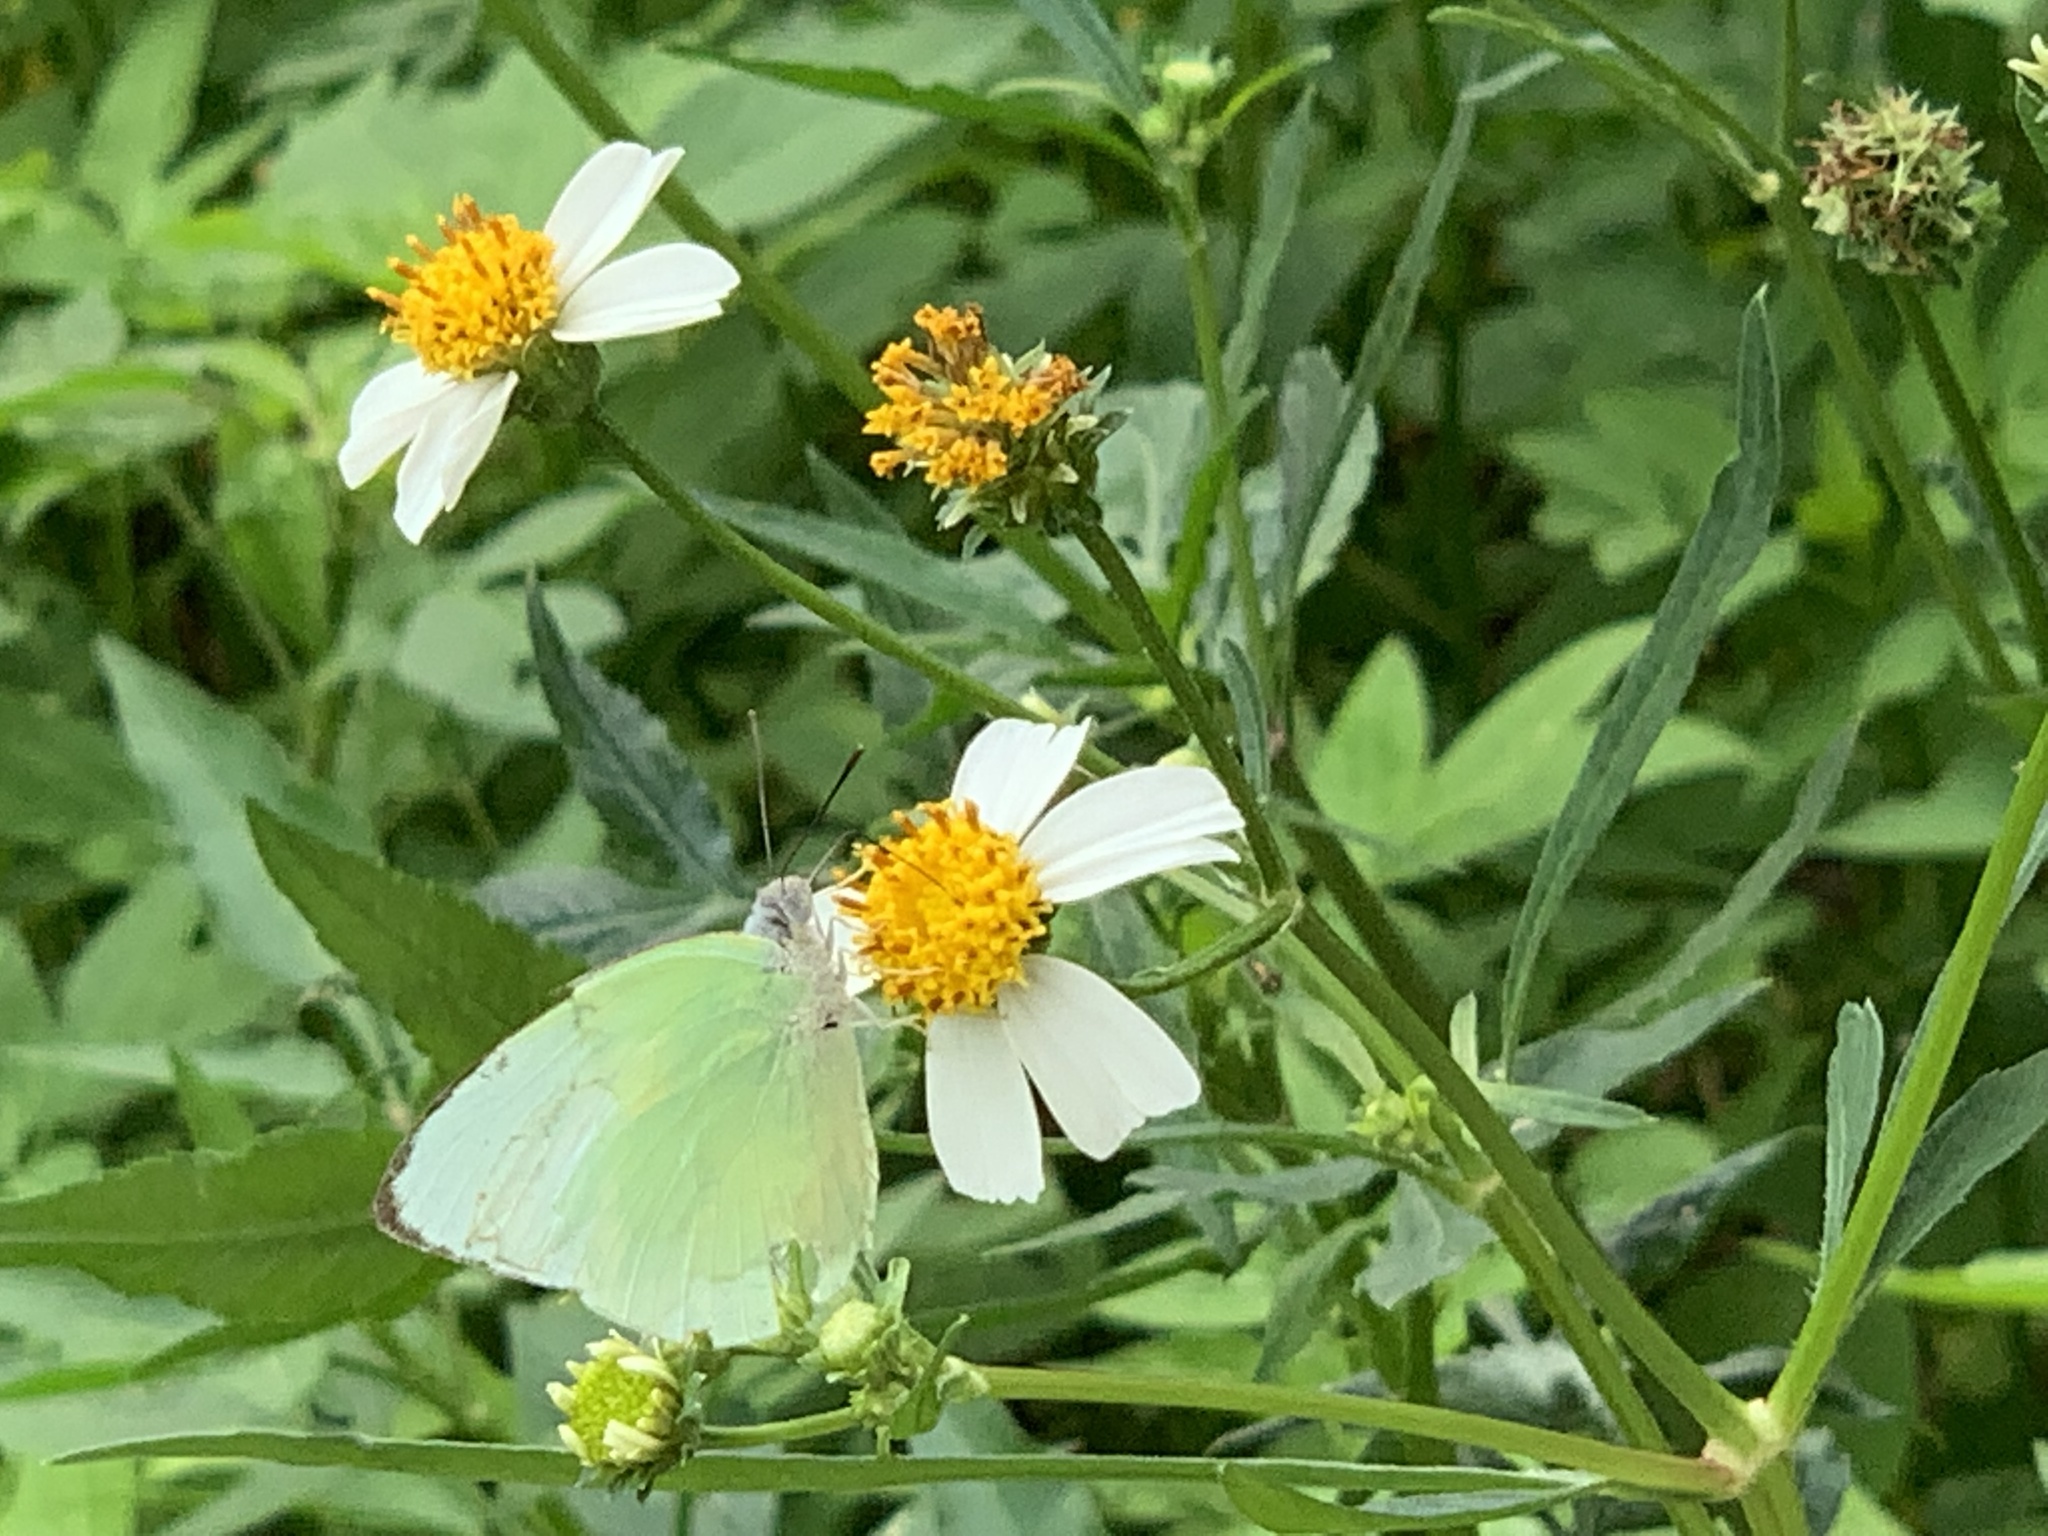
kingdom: Animalia
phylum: Arthropoda
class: Insecta
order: Lepidoptera
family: Pieridae
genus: Catopsilia
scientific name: Catopsilia pomona
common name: Common emigrant
